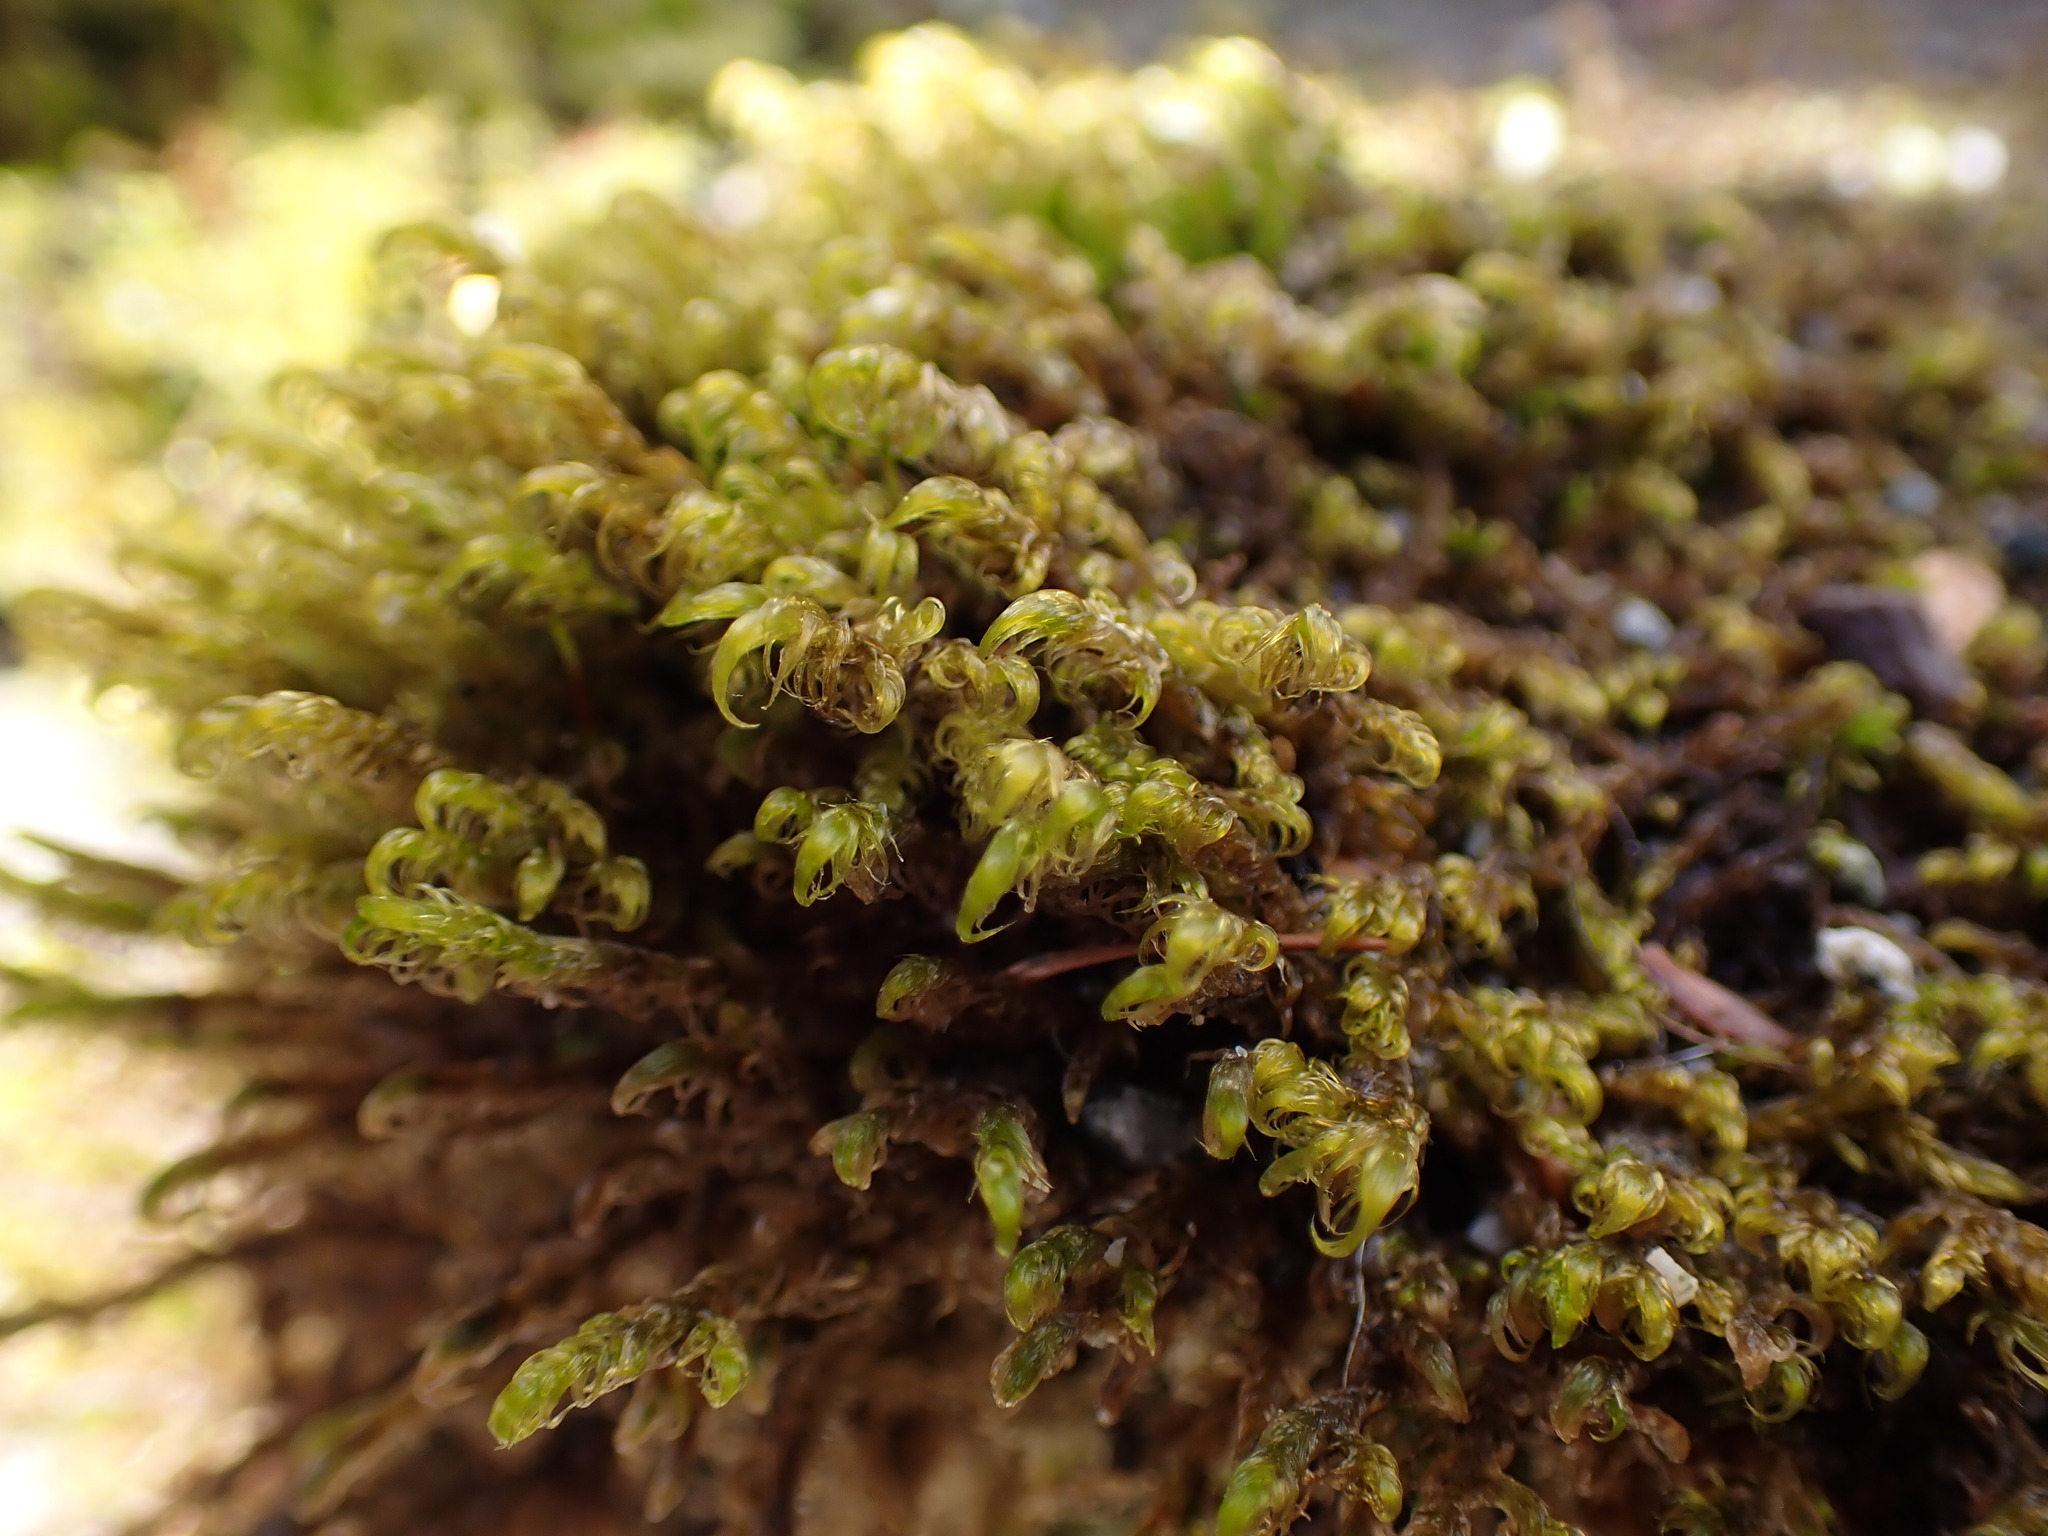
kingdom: Plantae
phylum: Bryophyta
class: Bryopsida
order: Hypnales
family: Scorpidiaceae
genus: Sanionia
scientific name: Sanionia uncinata
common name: Sickle moss
